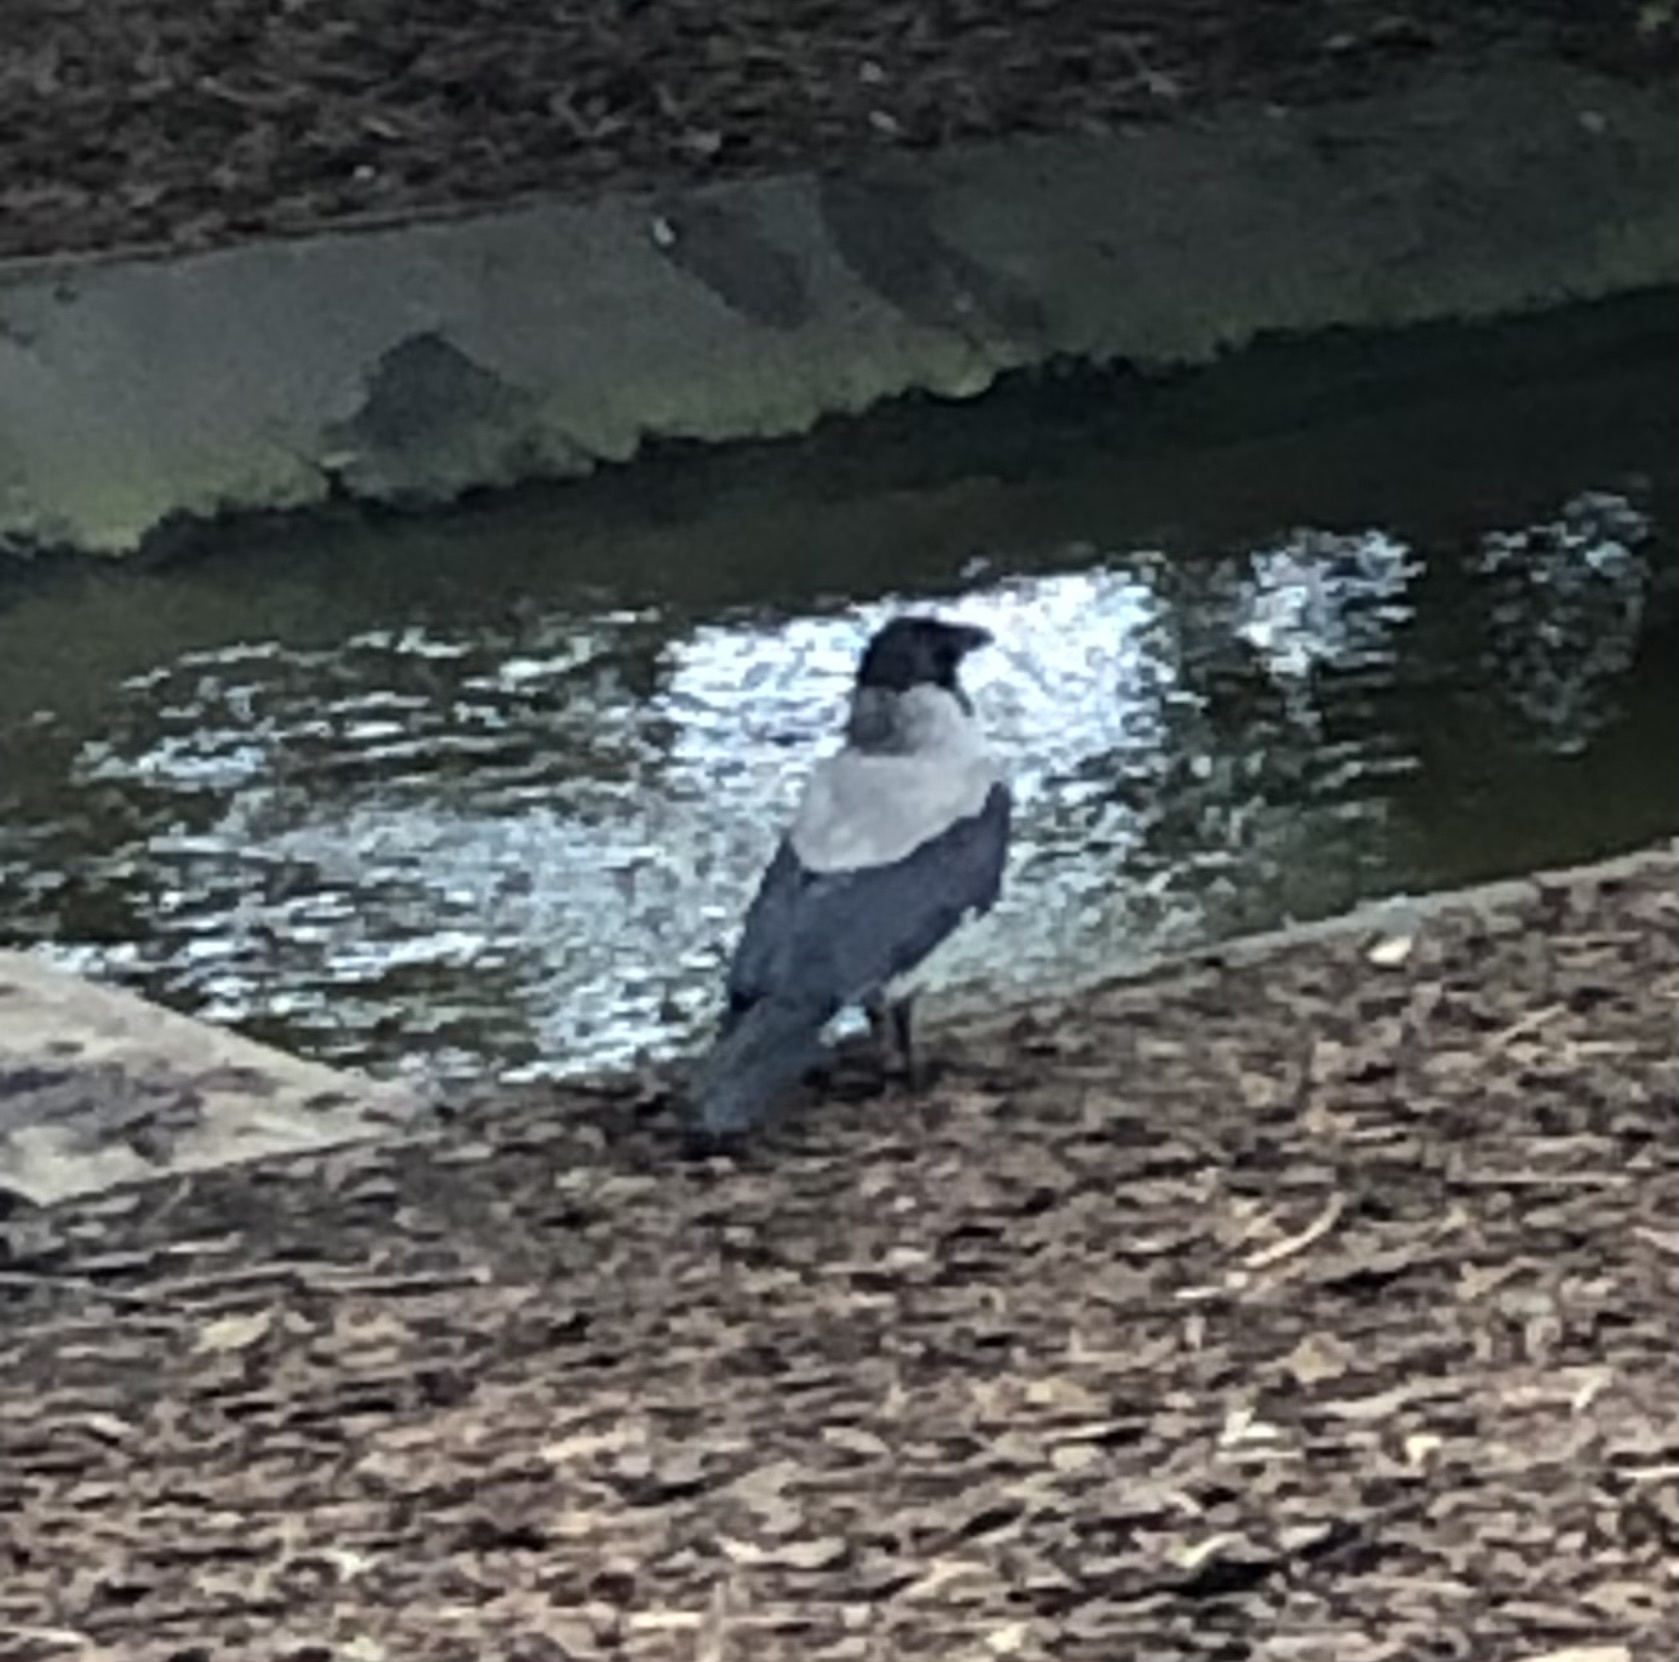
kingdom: Animalia
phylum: Chordata
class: Aves
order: Passeriformes
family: Corvidae
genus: Corvus
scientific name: Corvus cornix
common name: Hooded crow
